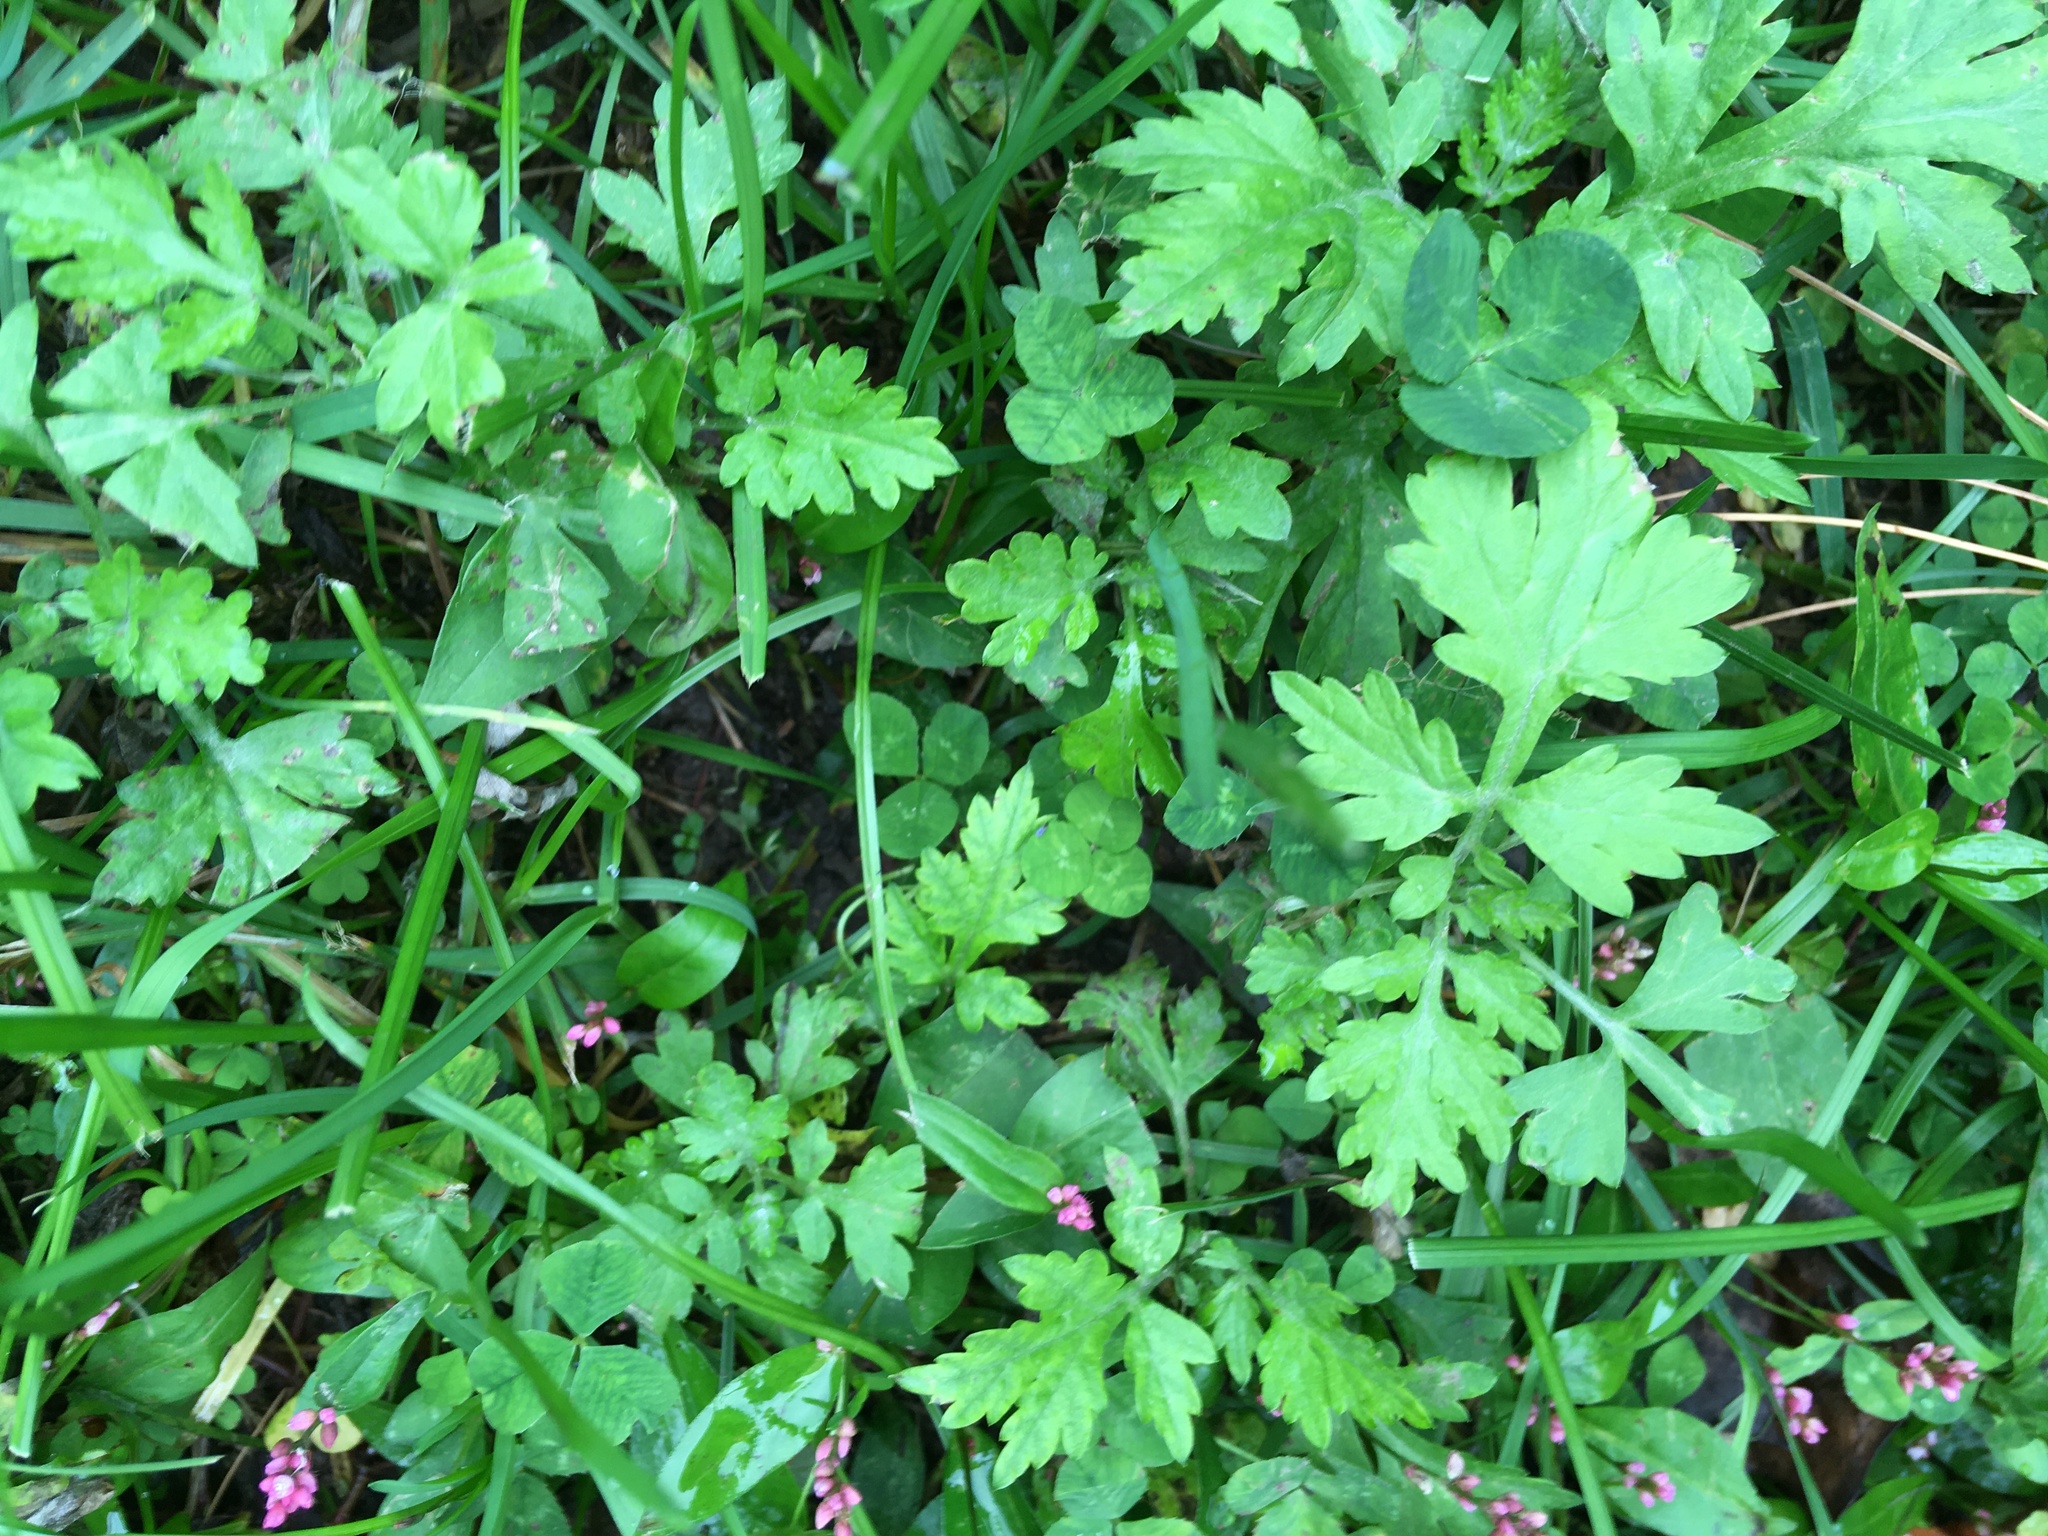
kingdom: Plantae
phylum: Tracheophyta
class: Magnoliopsida
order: Asterales
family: Asteraceae
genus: Artemisia
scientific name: Artemisia vulgaris
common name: Mugwort
